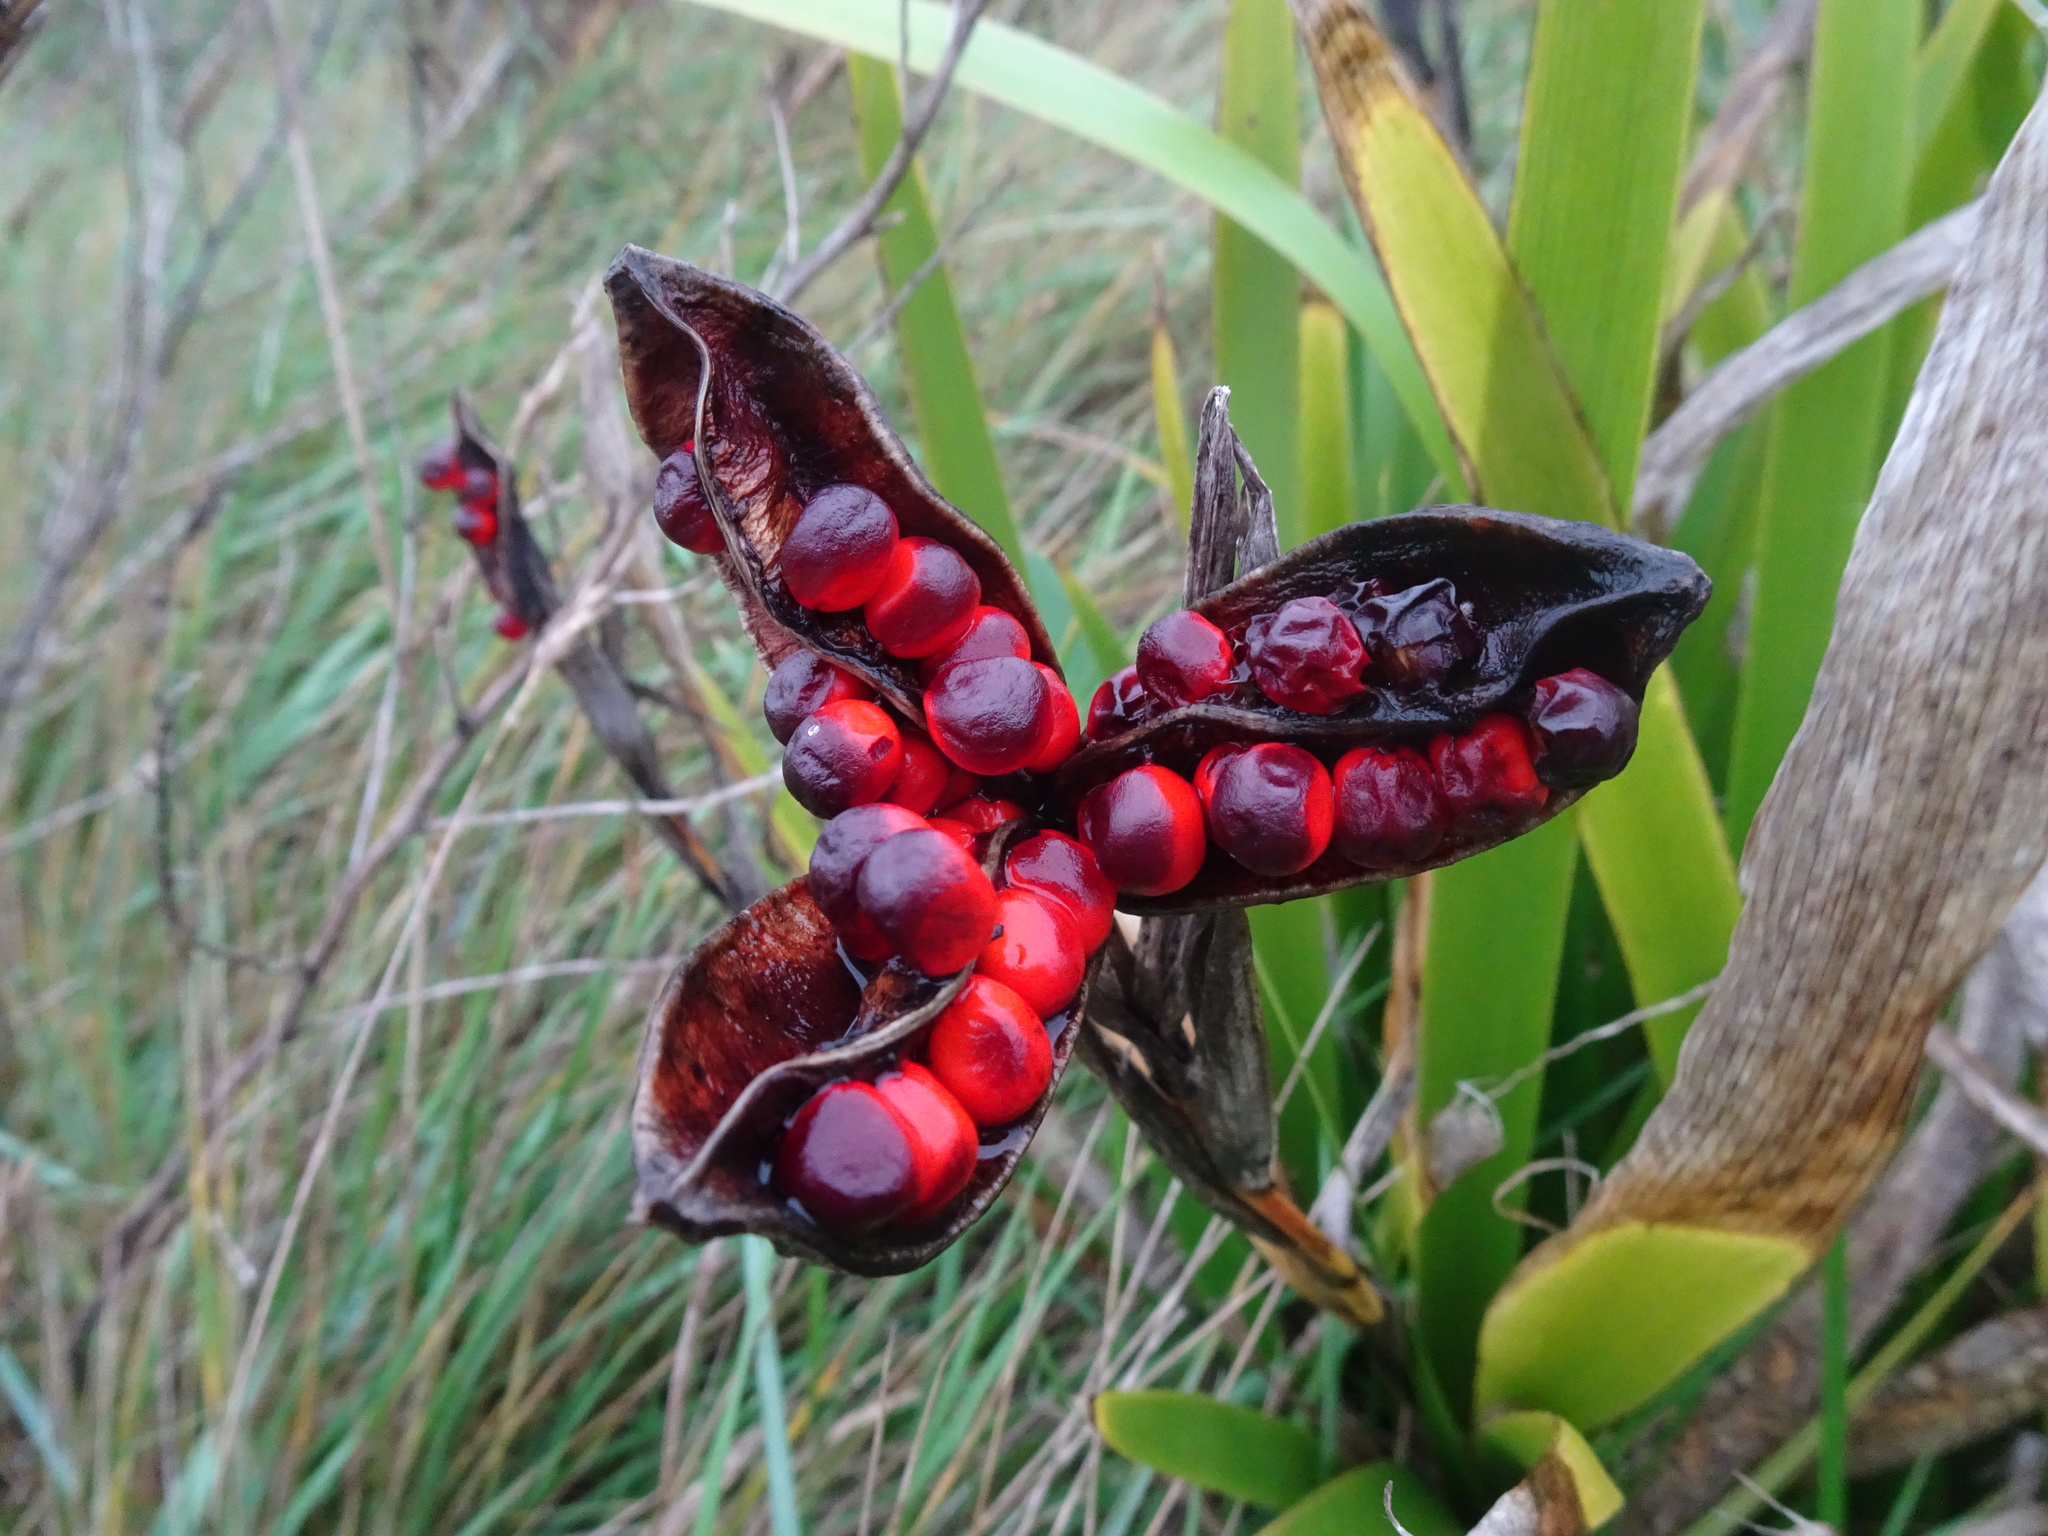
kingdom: Plantae
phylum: Tracheophyta
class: Liliopsida
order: Asparagales
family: Iridaceae
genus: Iris
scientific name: Iris foetidissima
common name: Stinking iris
